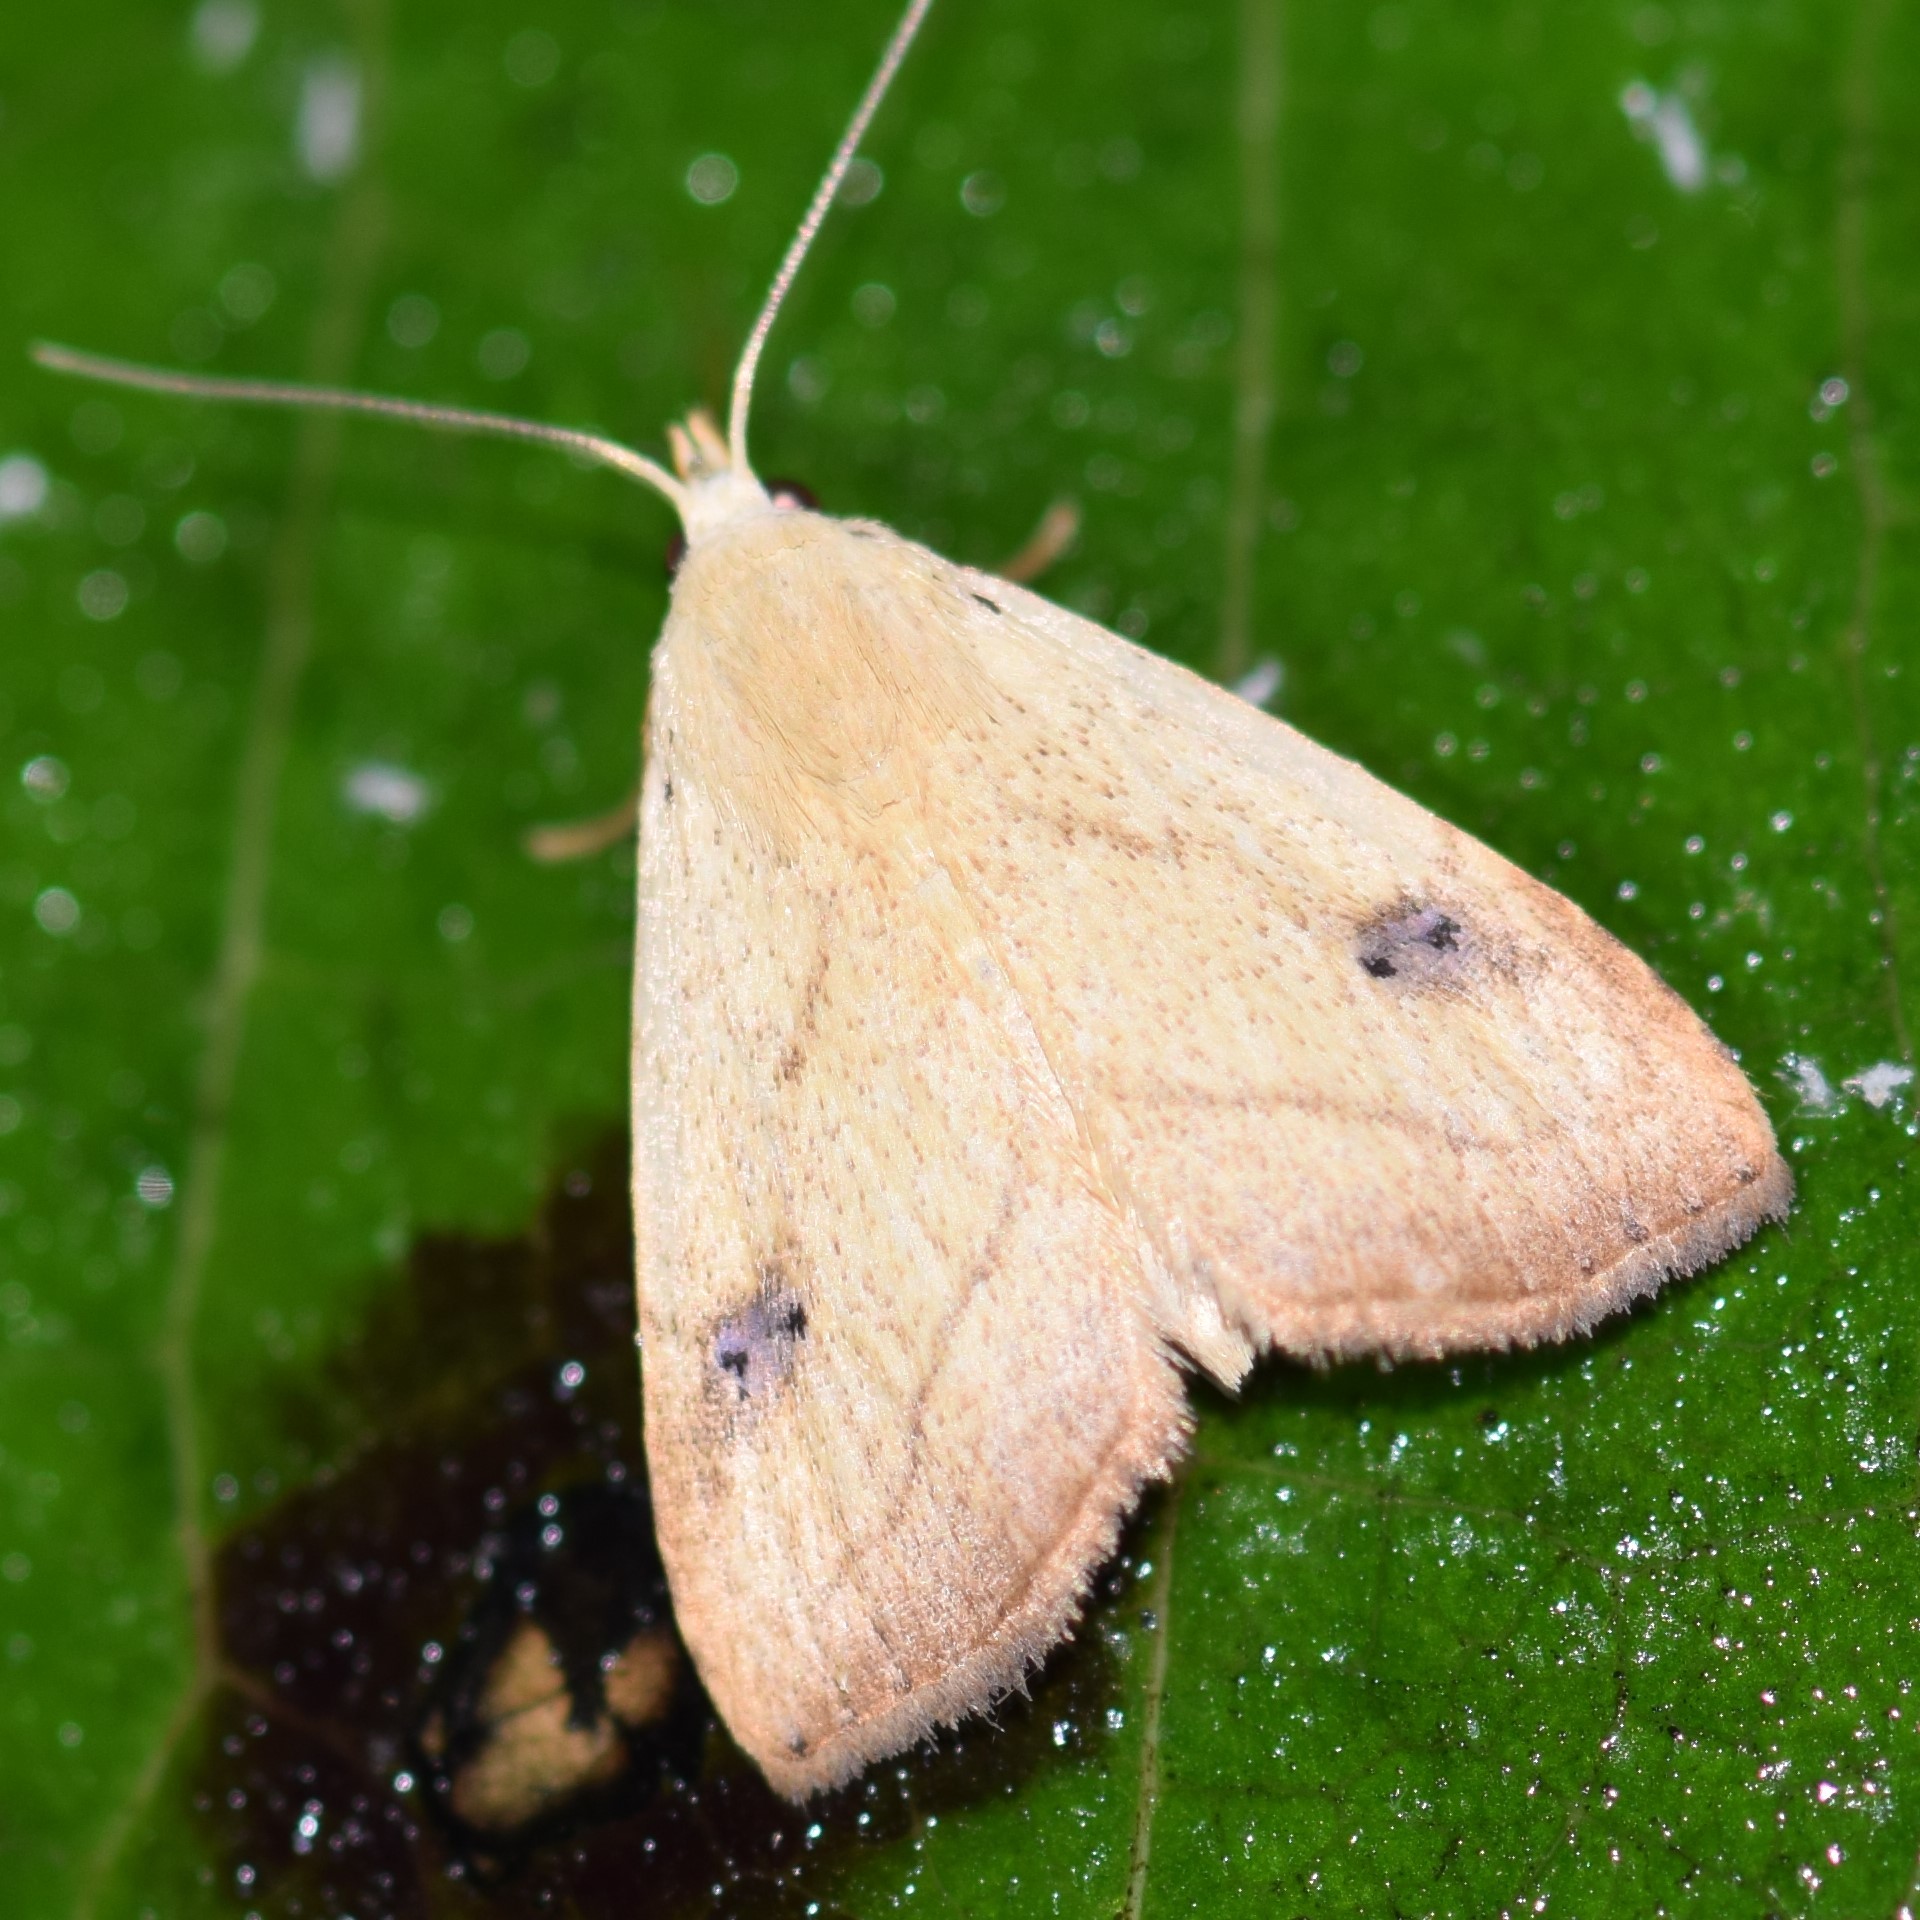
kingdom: Animalia
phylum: Arthropoda
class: Insecta
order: Lepidoptera
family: Erebidae
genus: Rivula
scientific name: Rivula propinqualis
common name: Spotted grass moth
